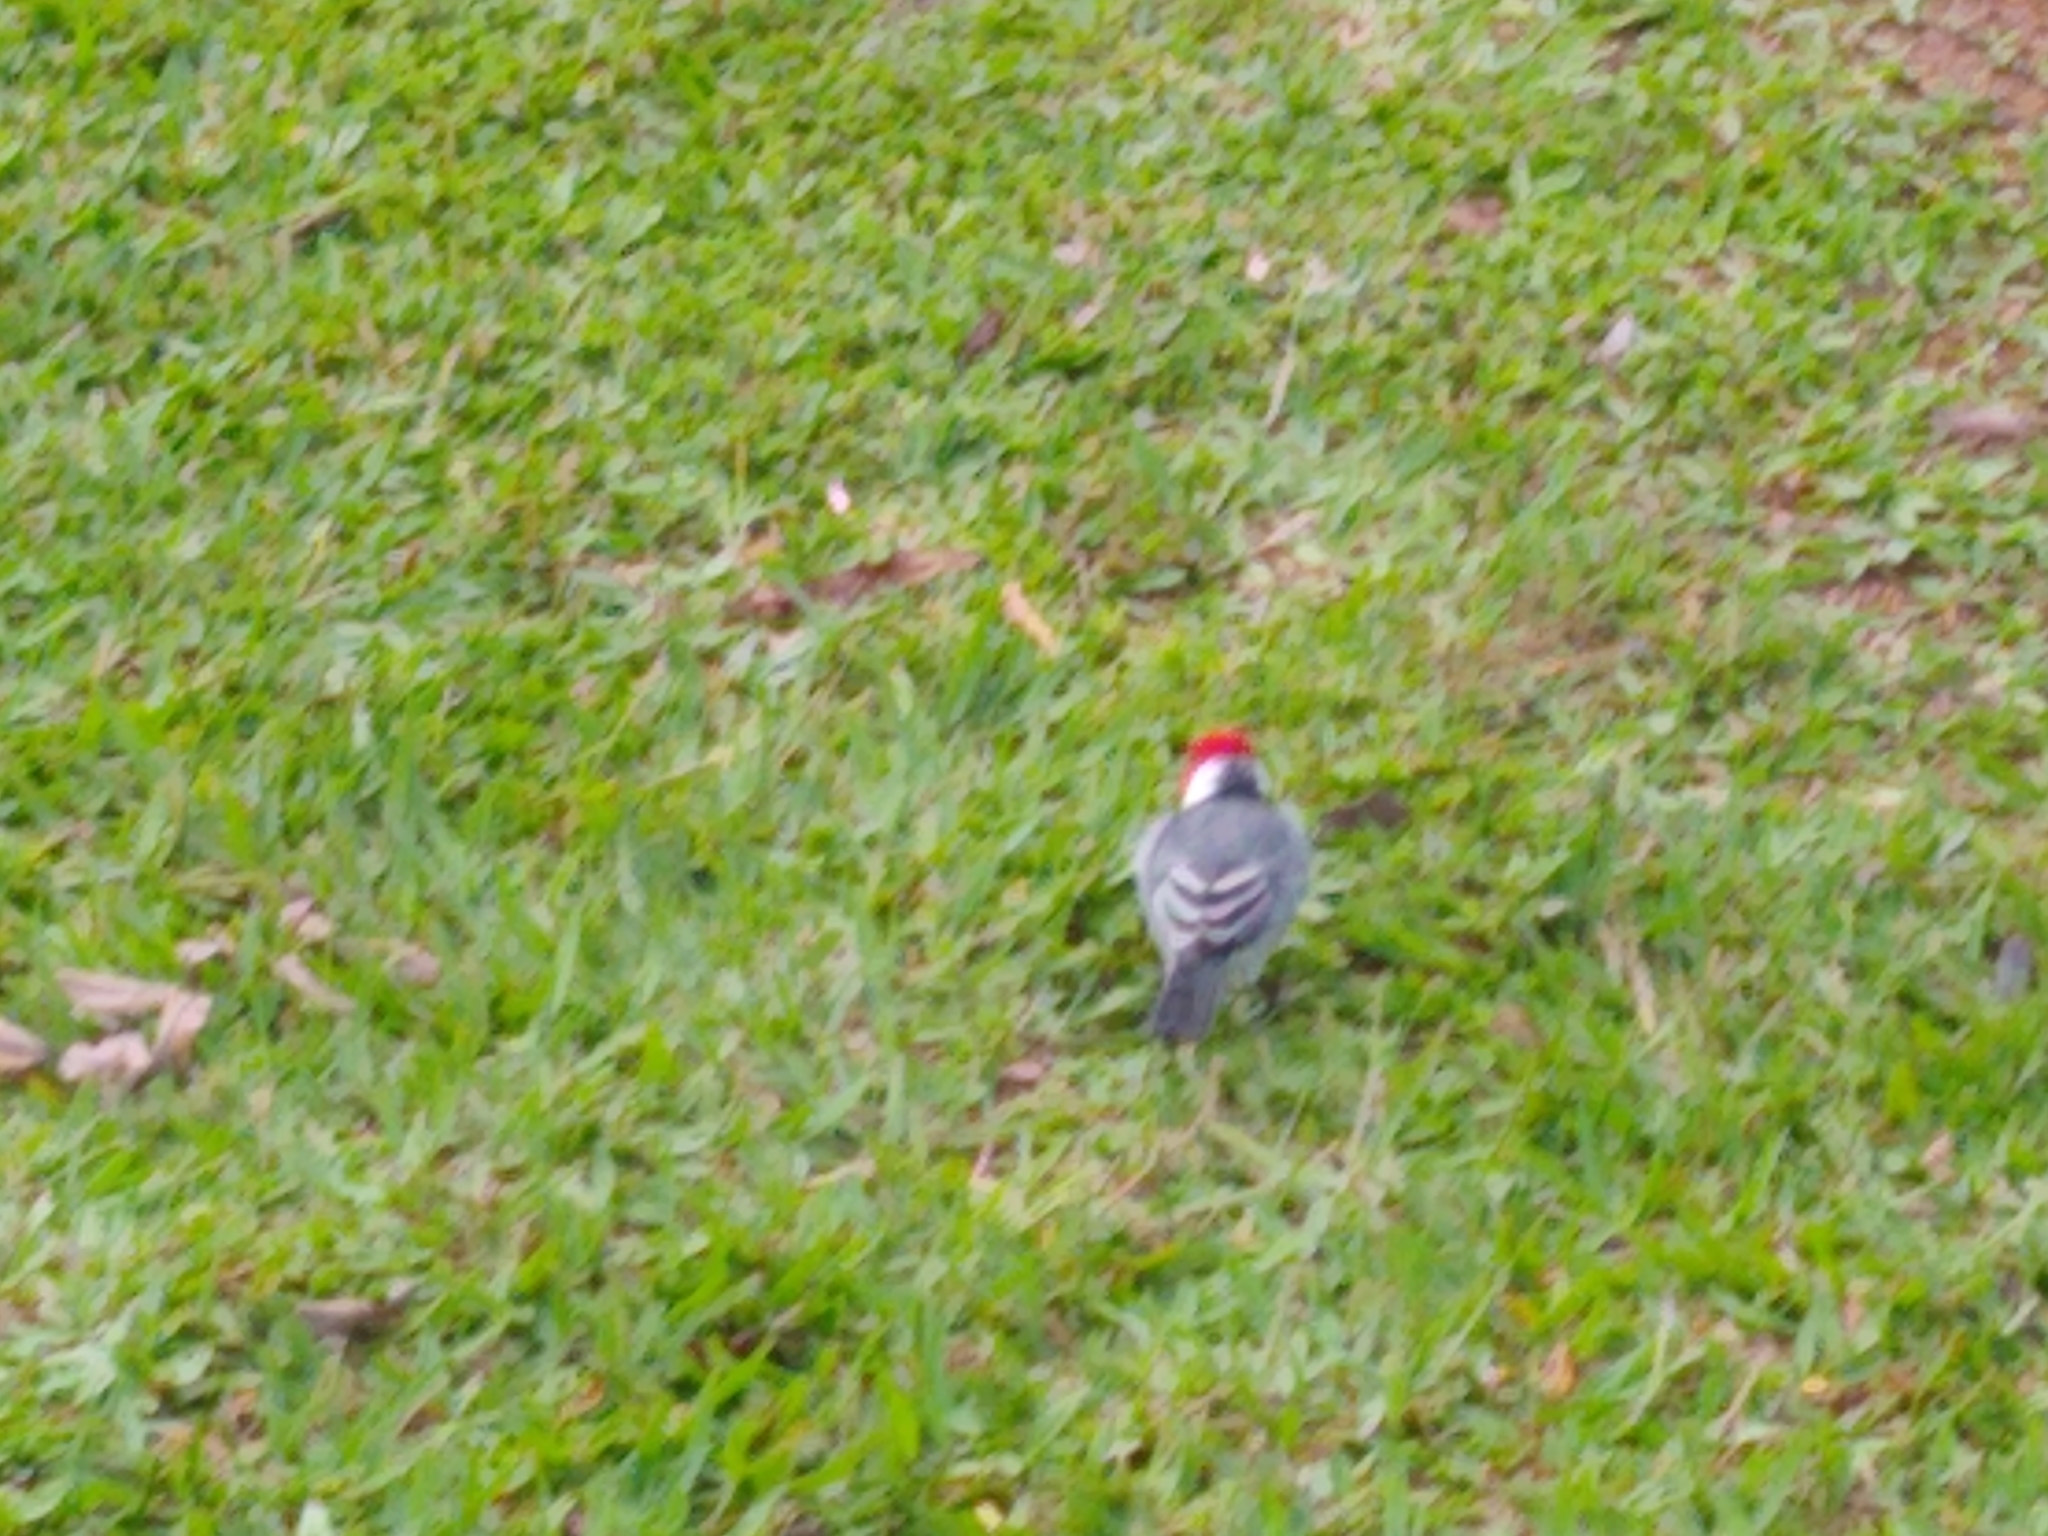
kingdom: Animalia
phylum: Chordata
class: Aves
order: Passeriformes
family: Thraupidae
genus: Paroaria
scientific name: Paroaria coronata
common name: Red-crested cardinal
